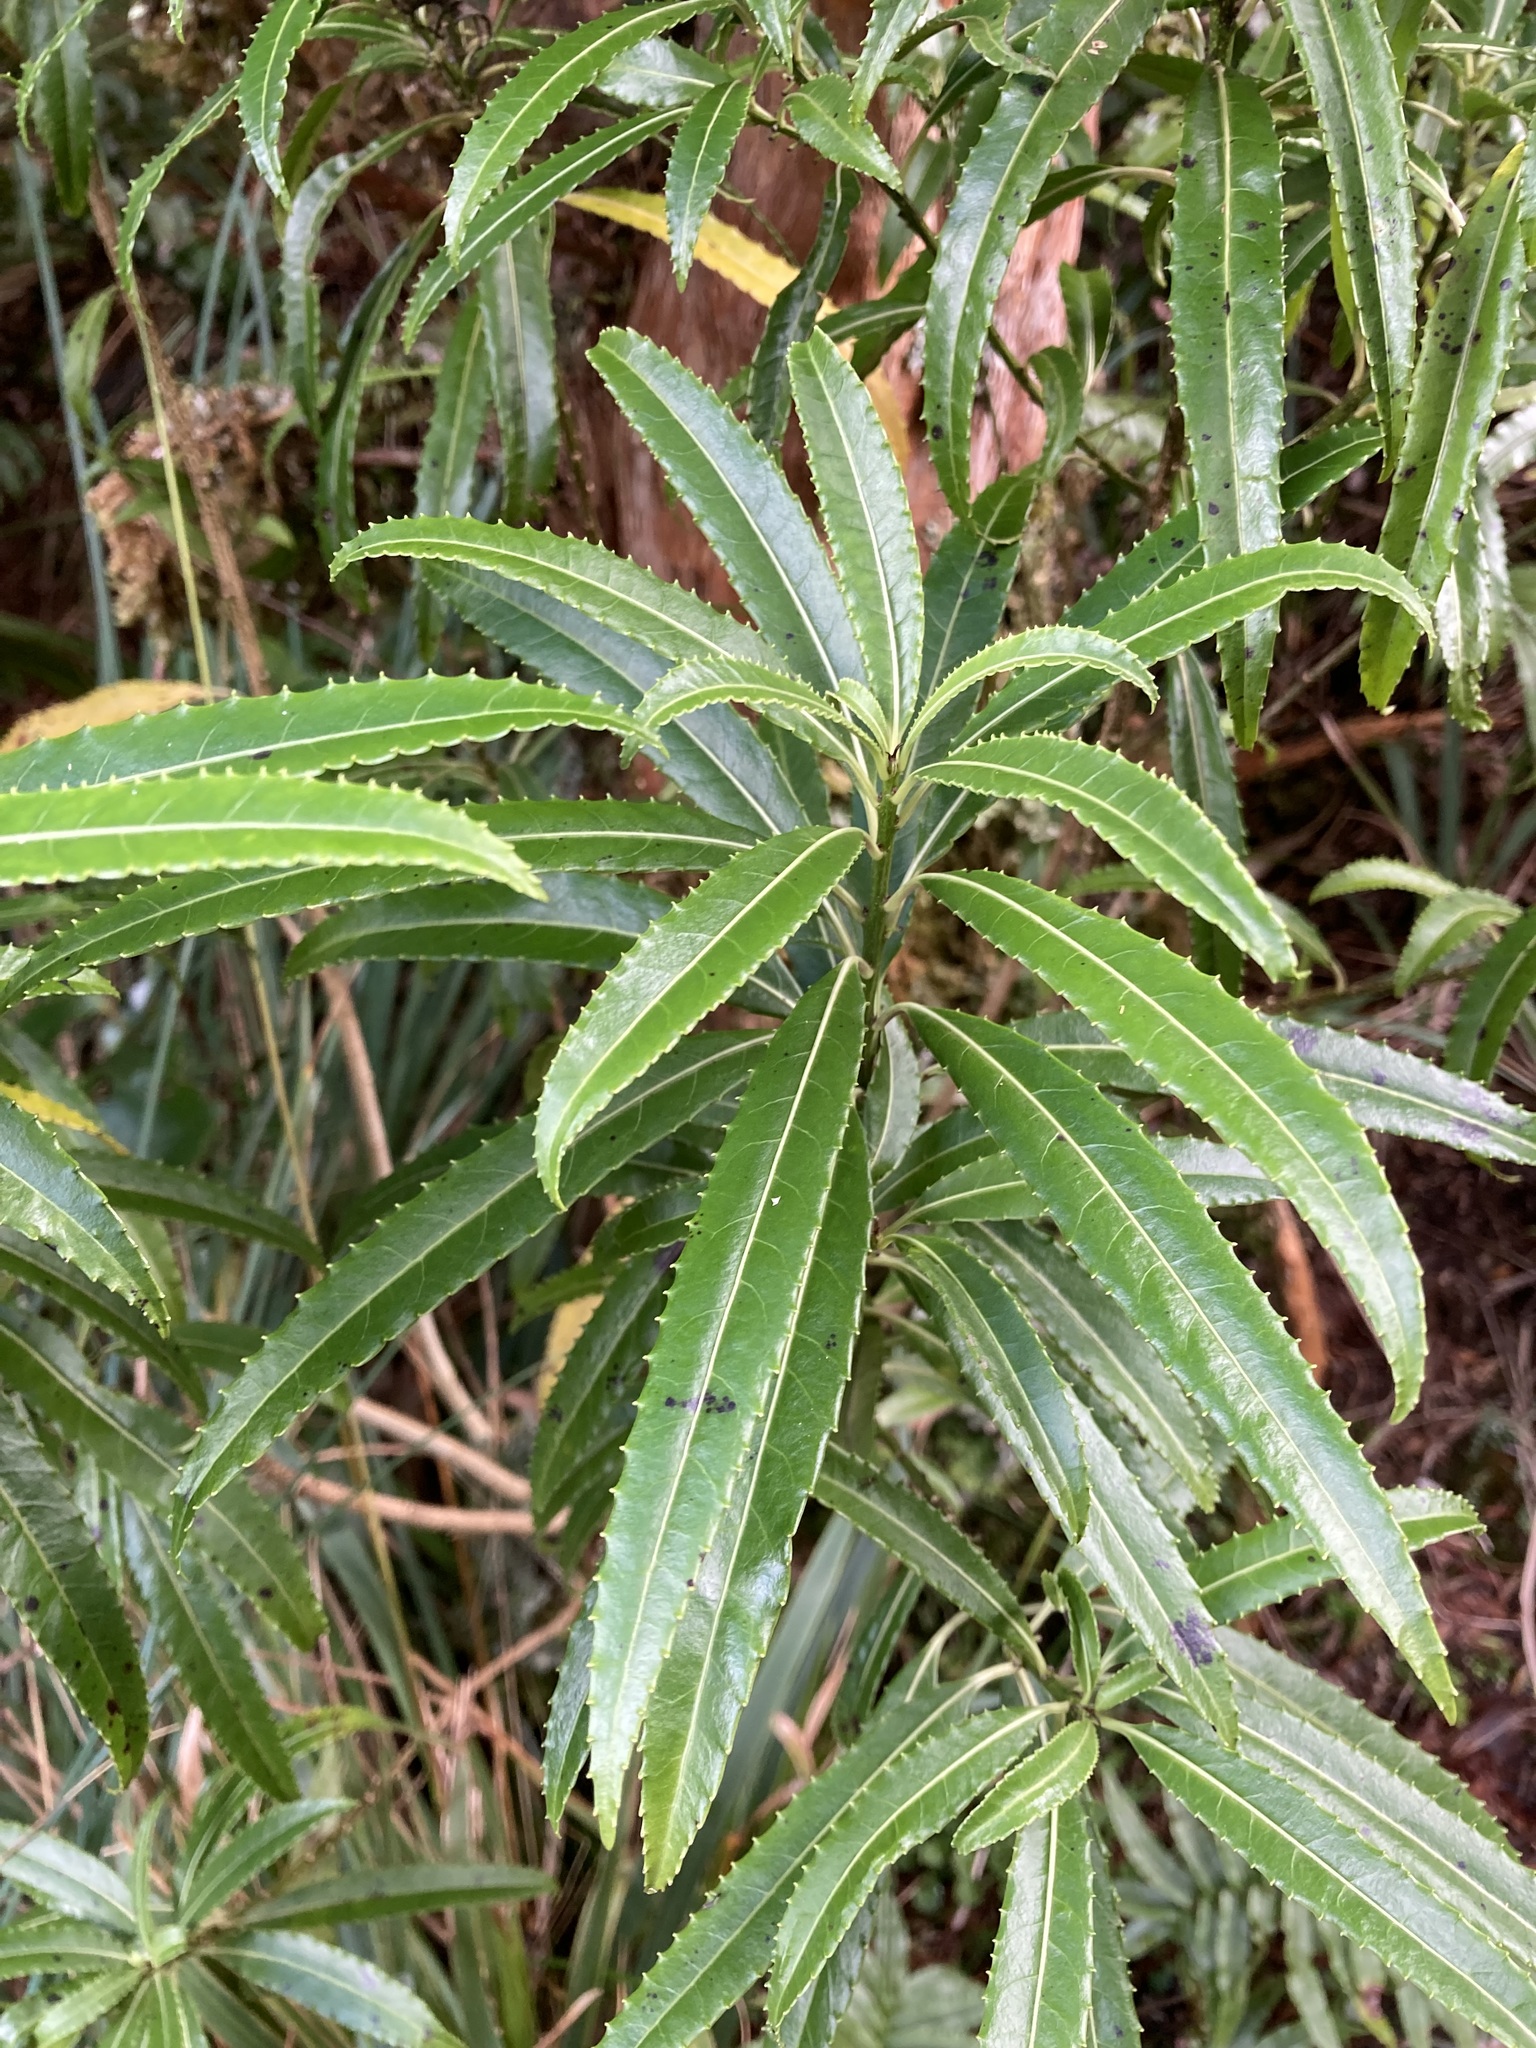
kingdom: Plantae
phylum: Tracheophyta
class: Magnoliopsida
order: Malpighiales
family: Violaceae
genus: Melicytus
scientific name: Melicytus lanceolatus
